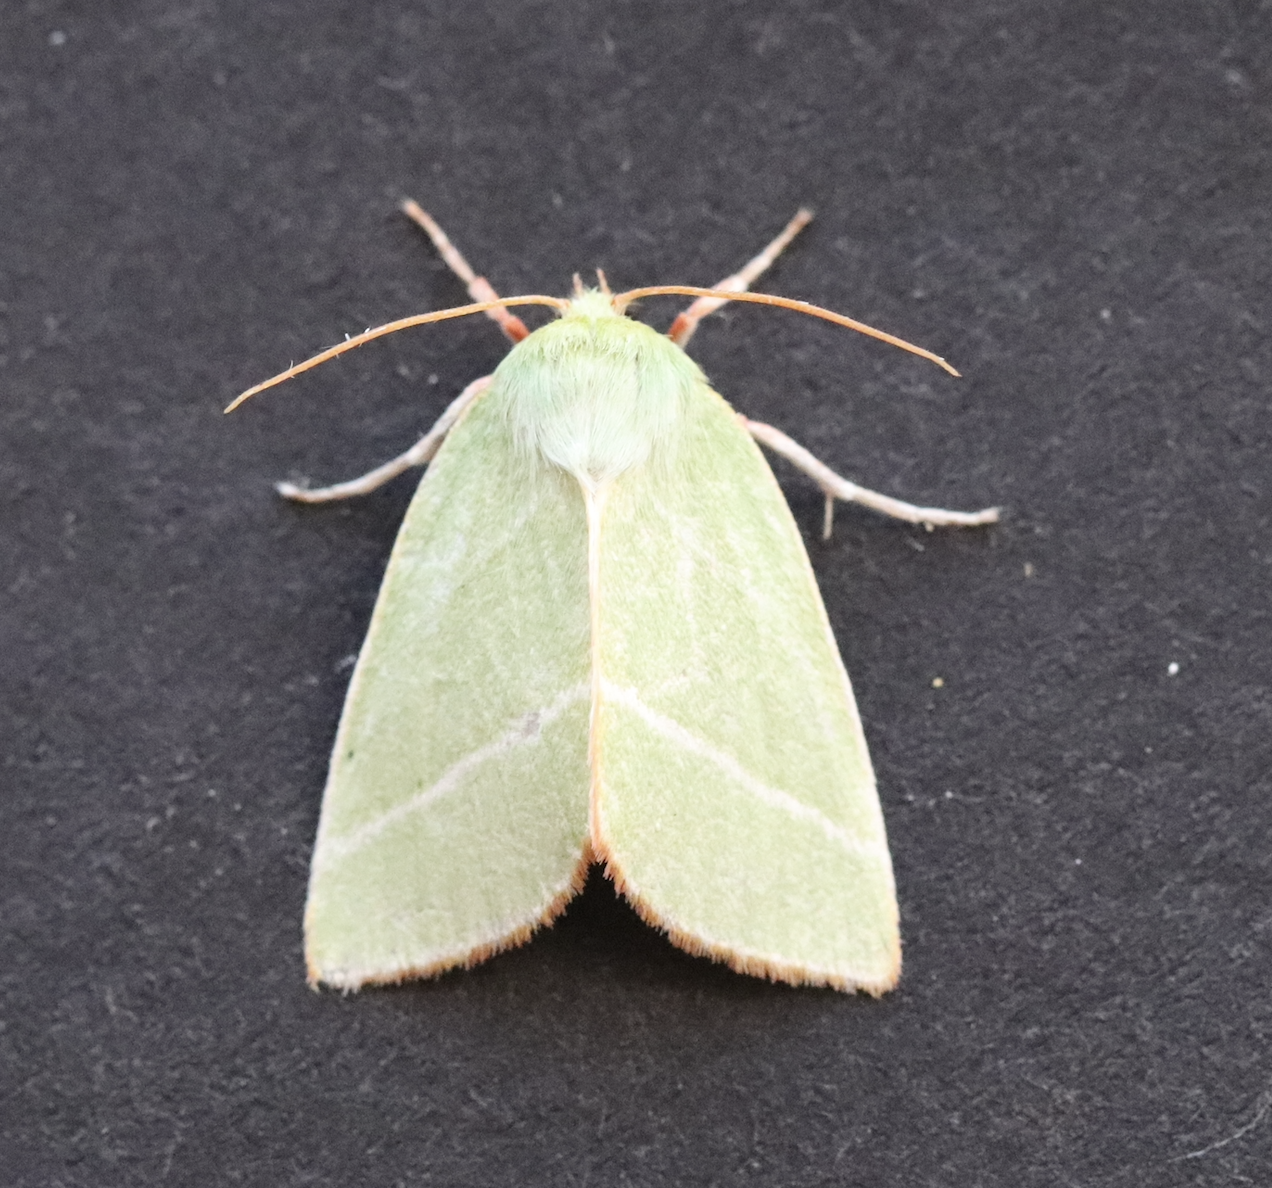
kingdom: Animalia
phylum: Arthropoda
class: Insecta
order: Lepidoptera
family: Nolidae
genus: Pseudoips
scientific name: Pseudoips prasinana
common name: Green silver-lines
